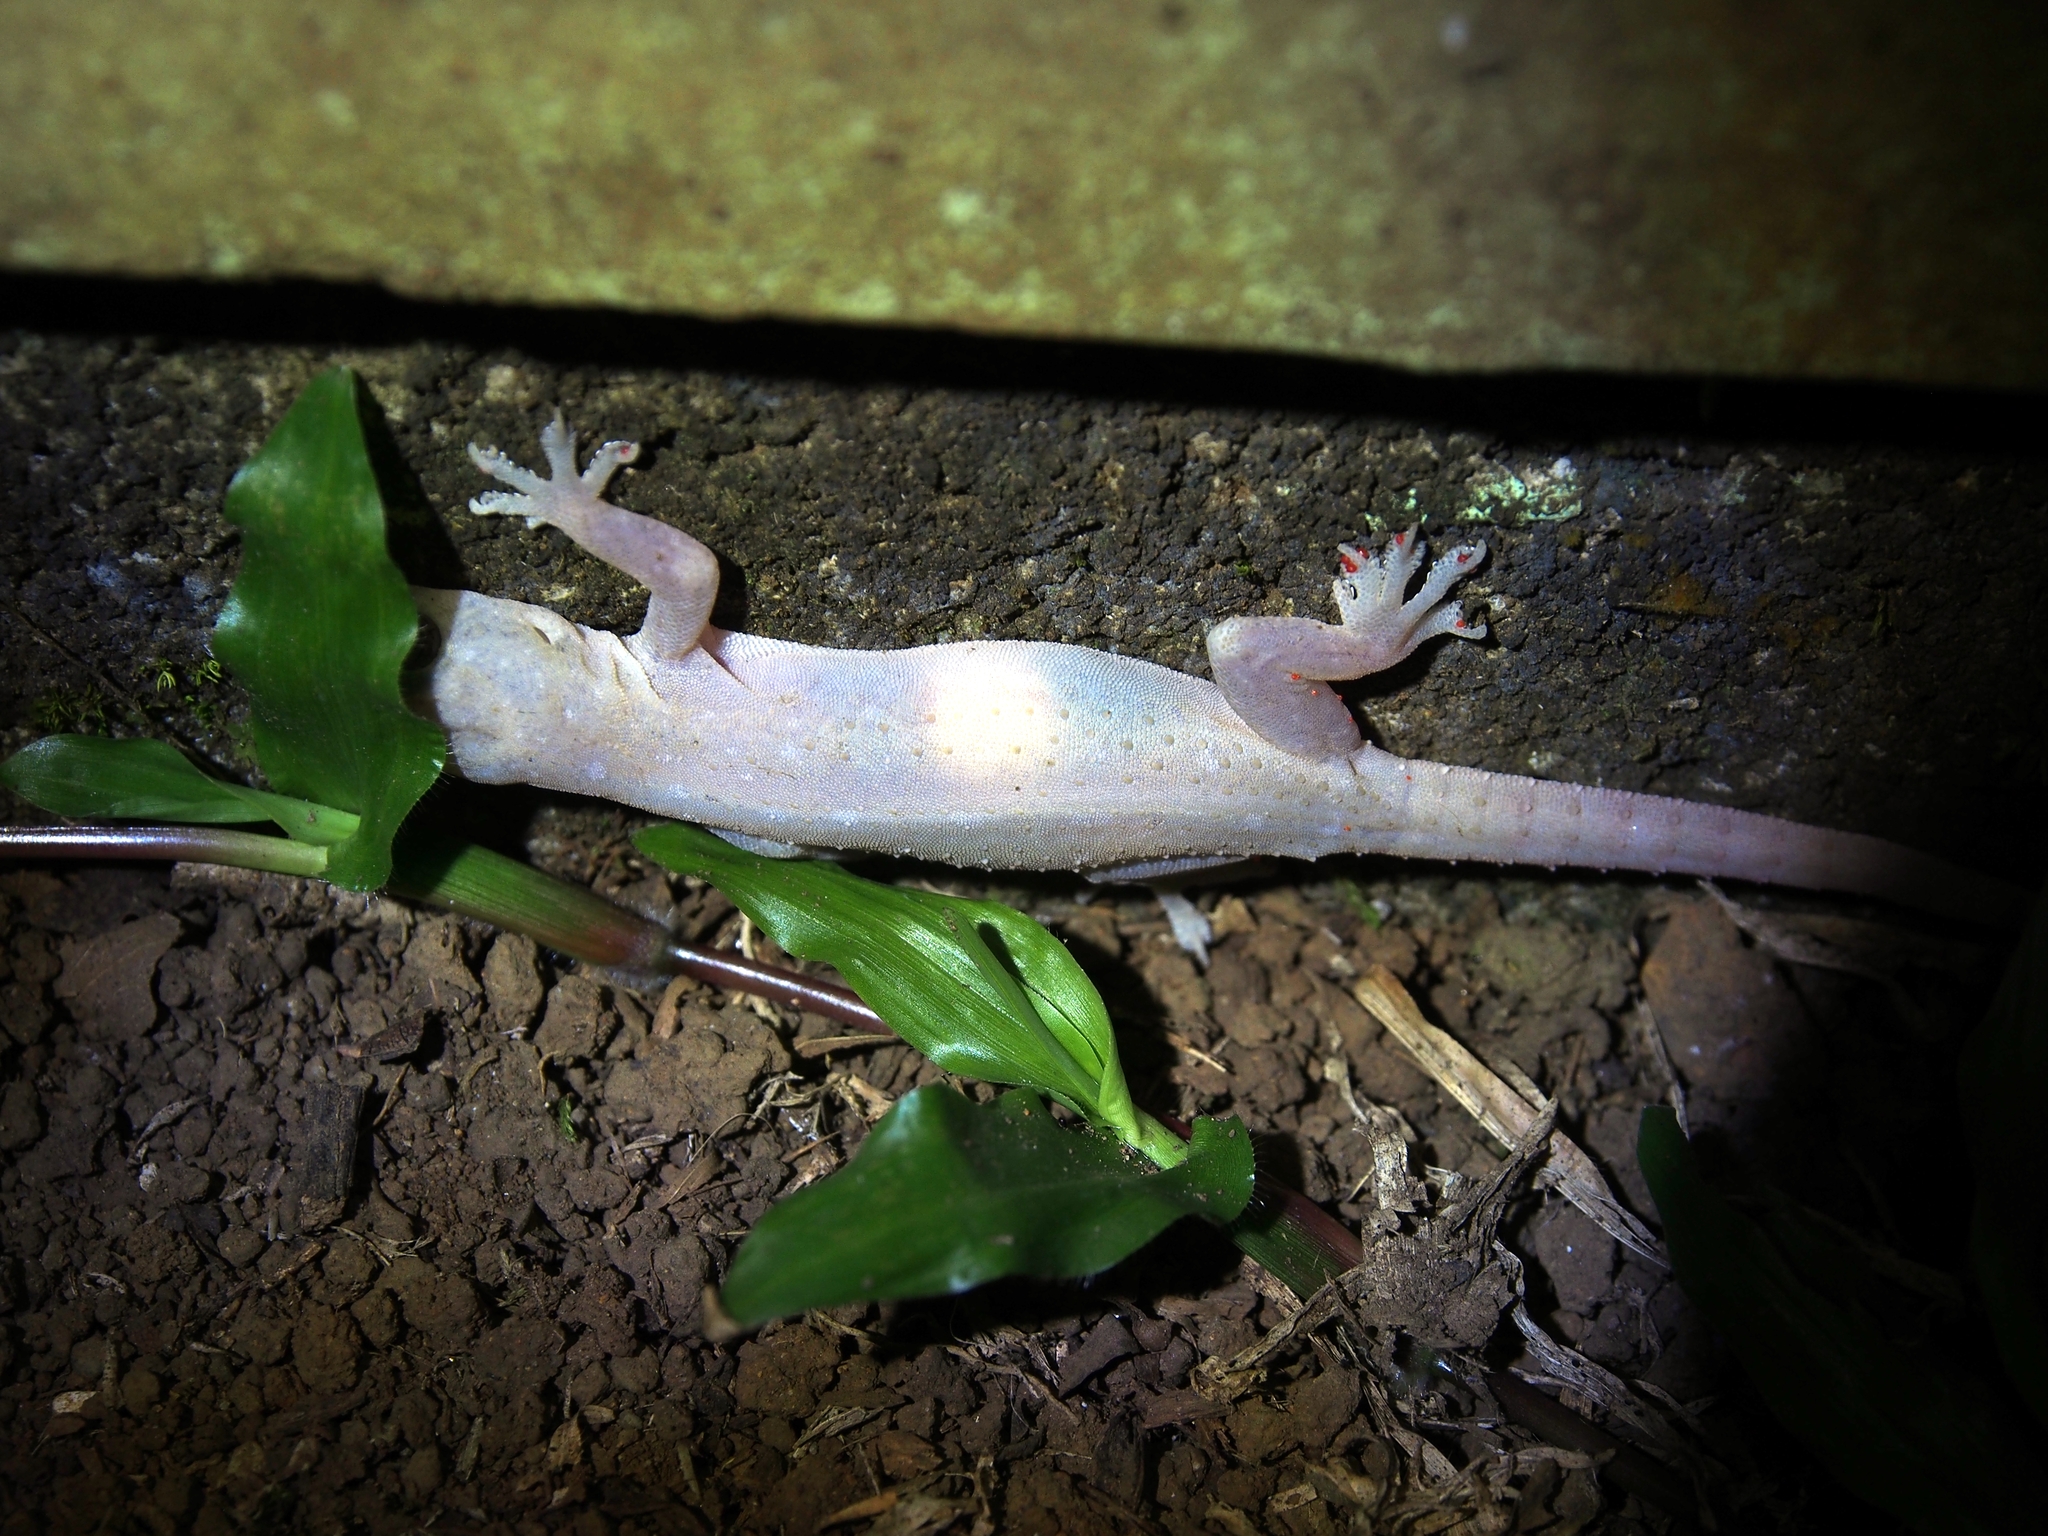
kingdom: Animalia
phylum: Chordata
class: Squamata
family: Gekkonidae
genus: Hemidactylus
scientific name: Hemidactylus frenatus
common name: Common house gecko
